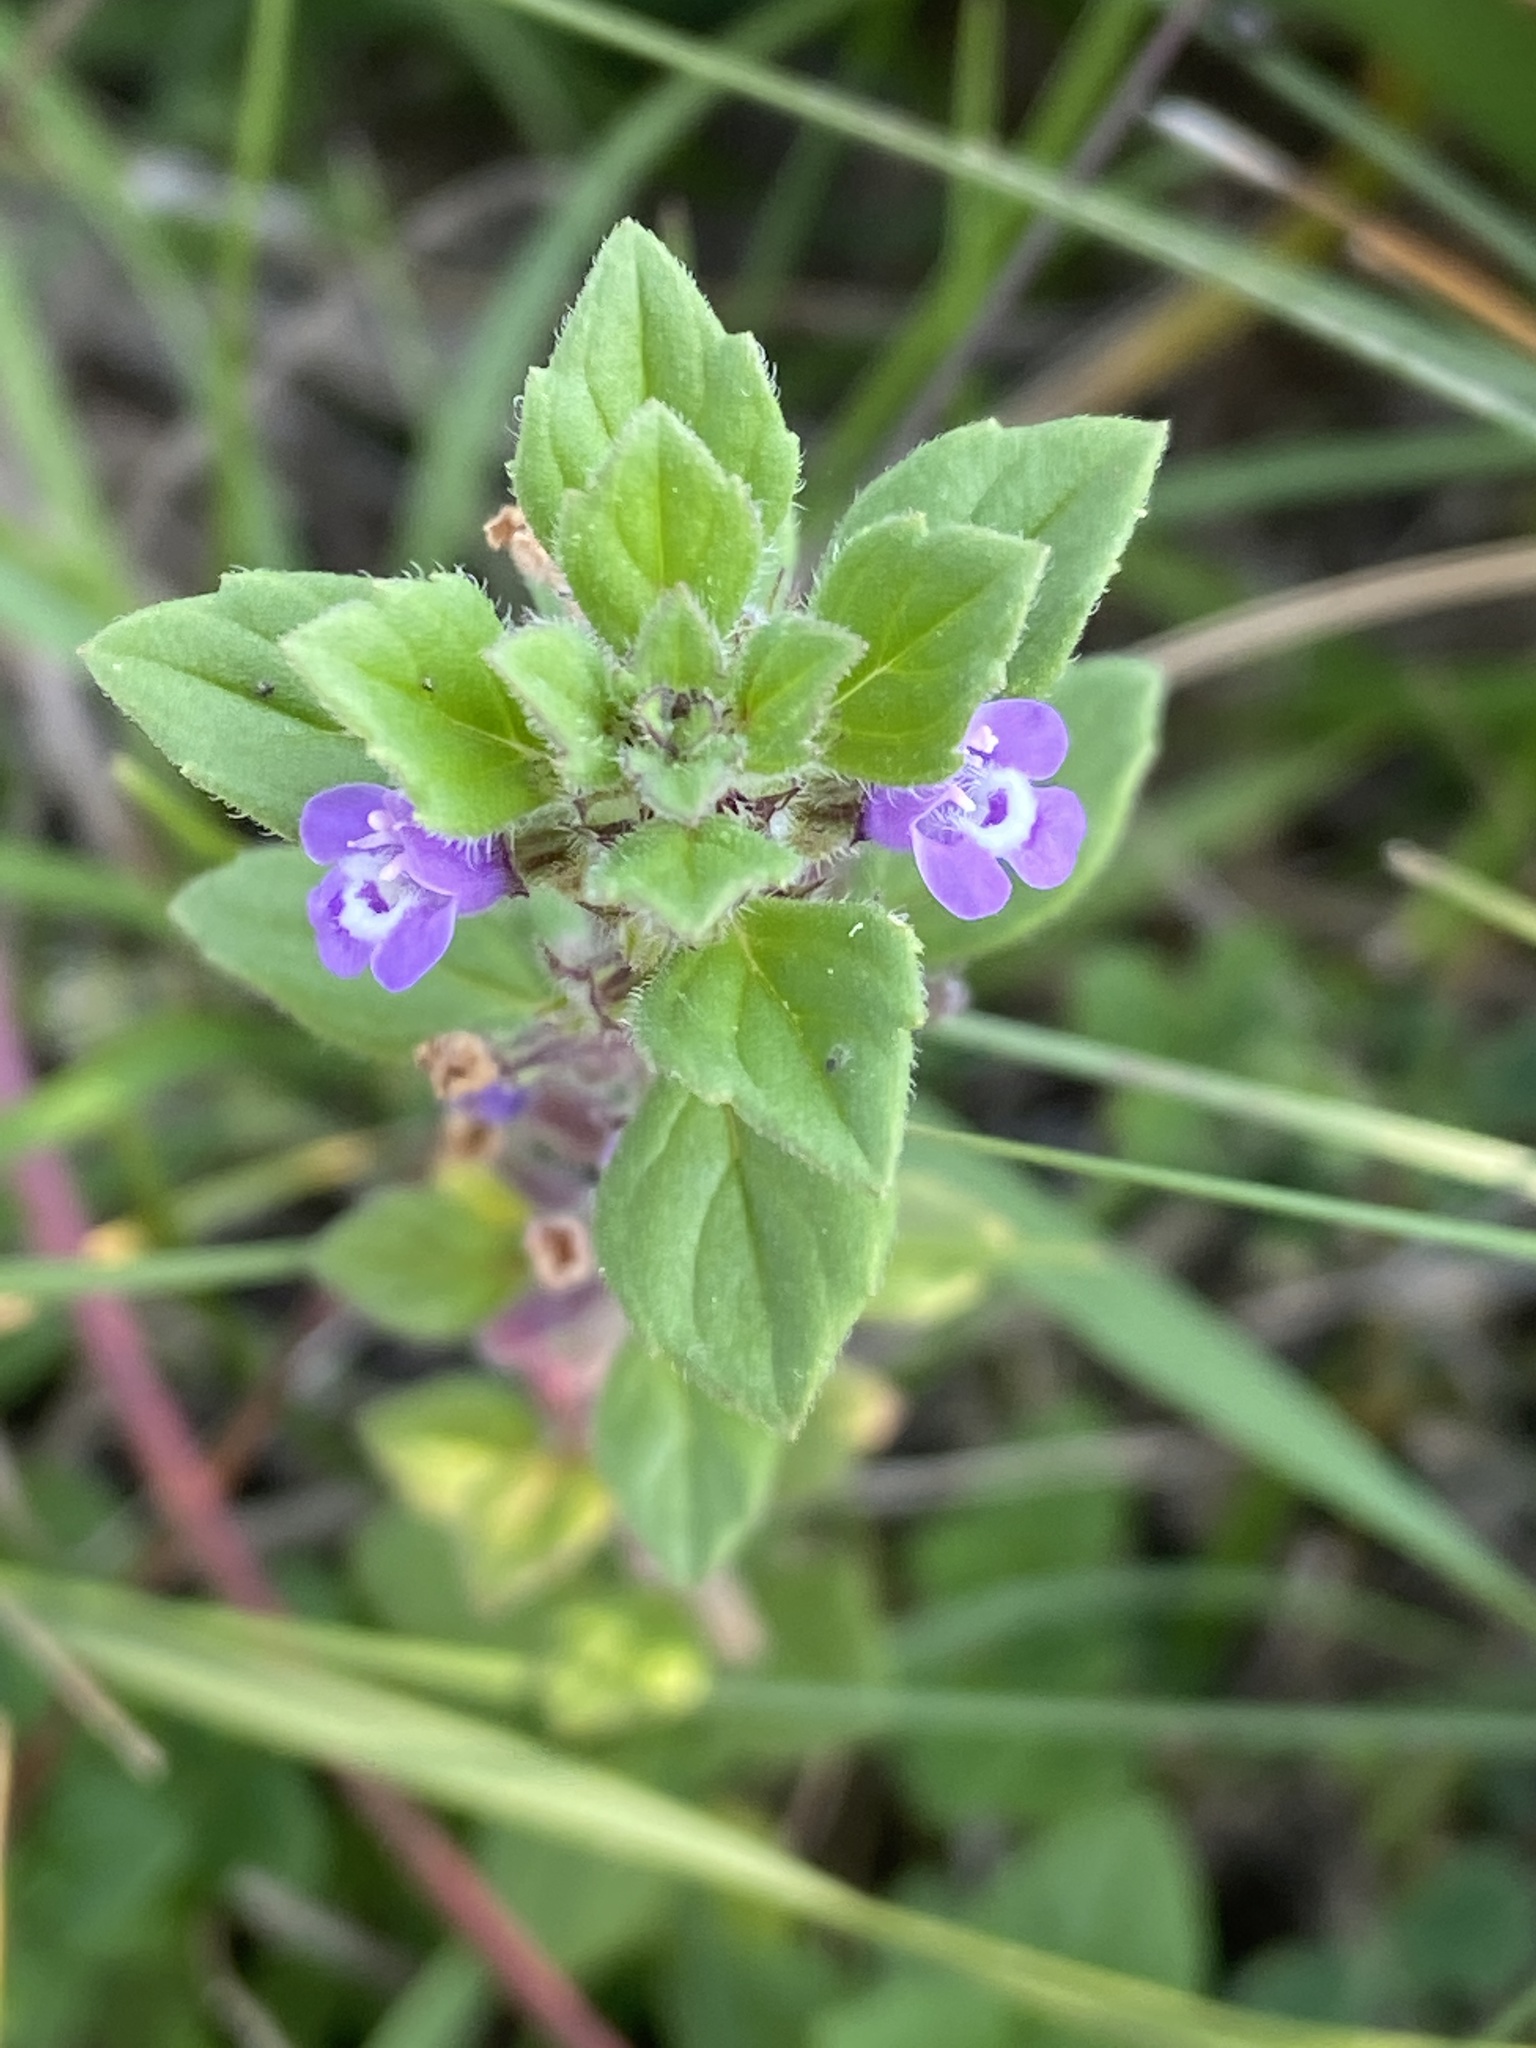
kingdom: Plantae
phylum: Tracheophyta
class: Magnoliopsida
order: Lamiales
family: Lamiaceae
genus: Clinopodium
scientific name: Clinopodium acinos
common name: Basil thyme
